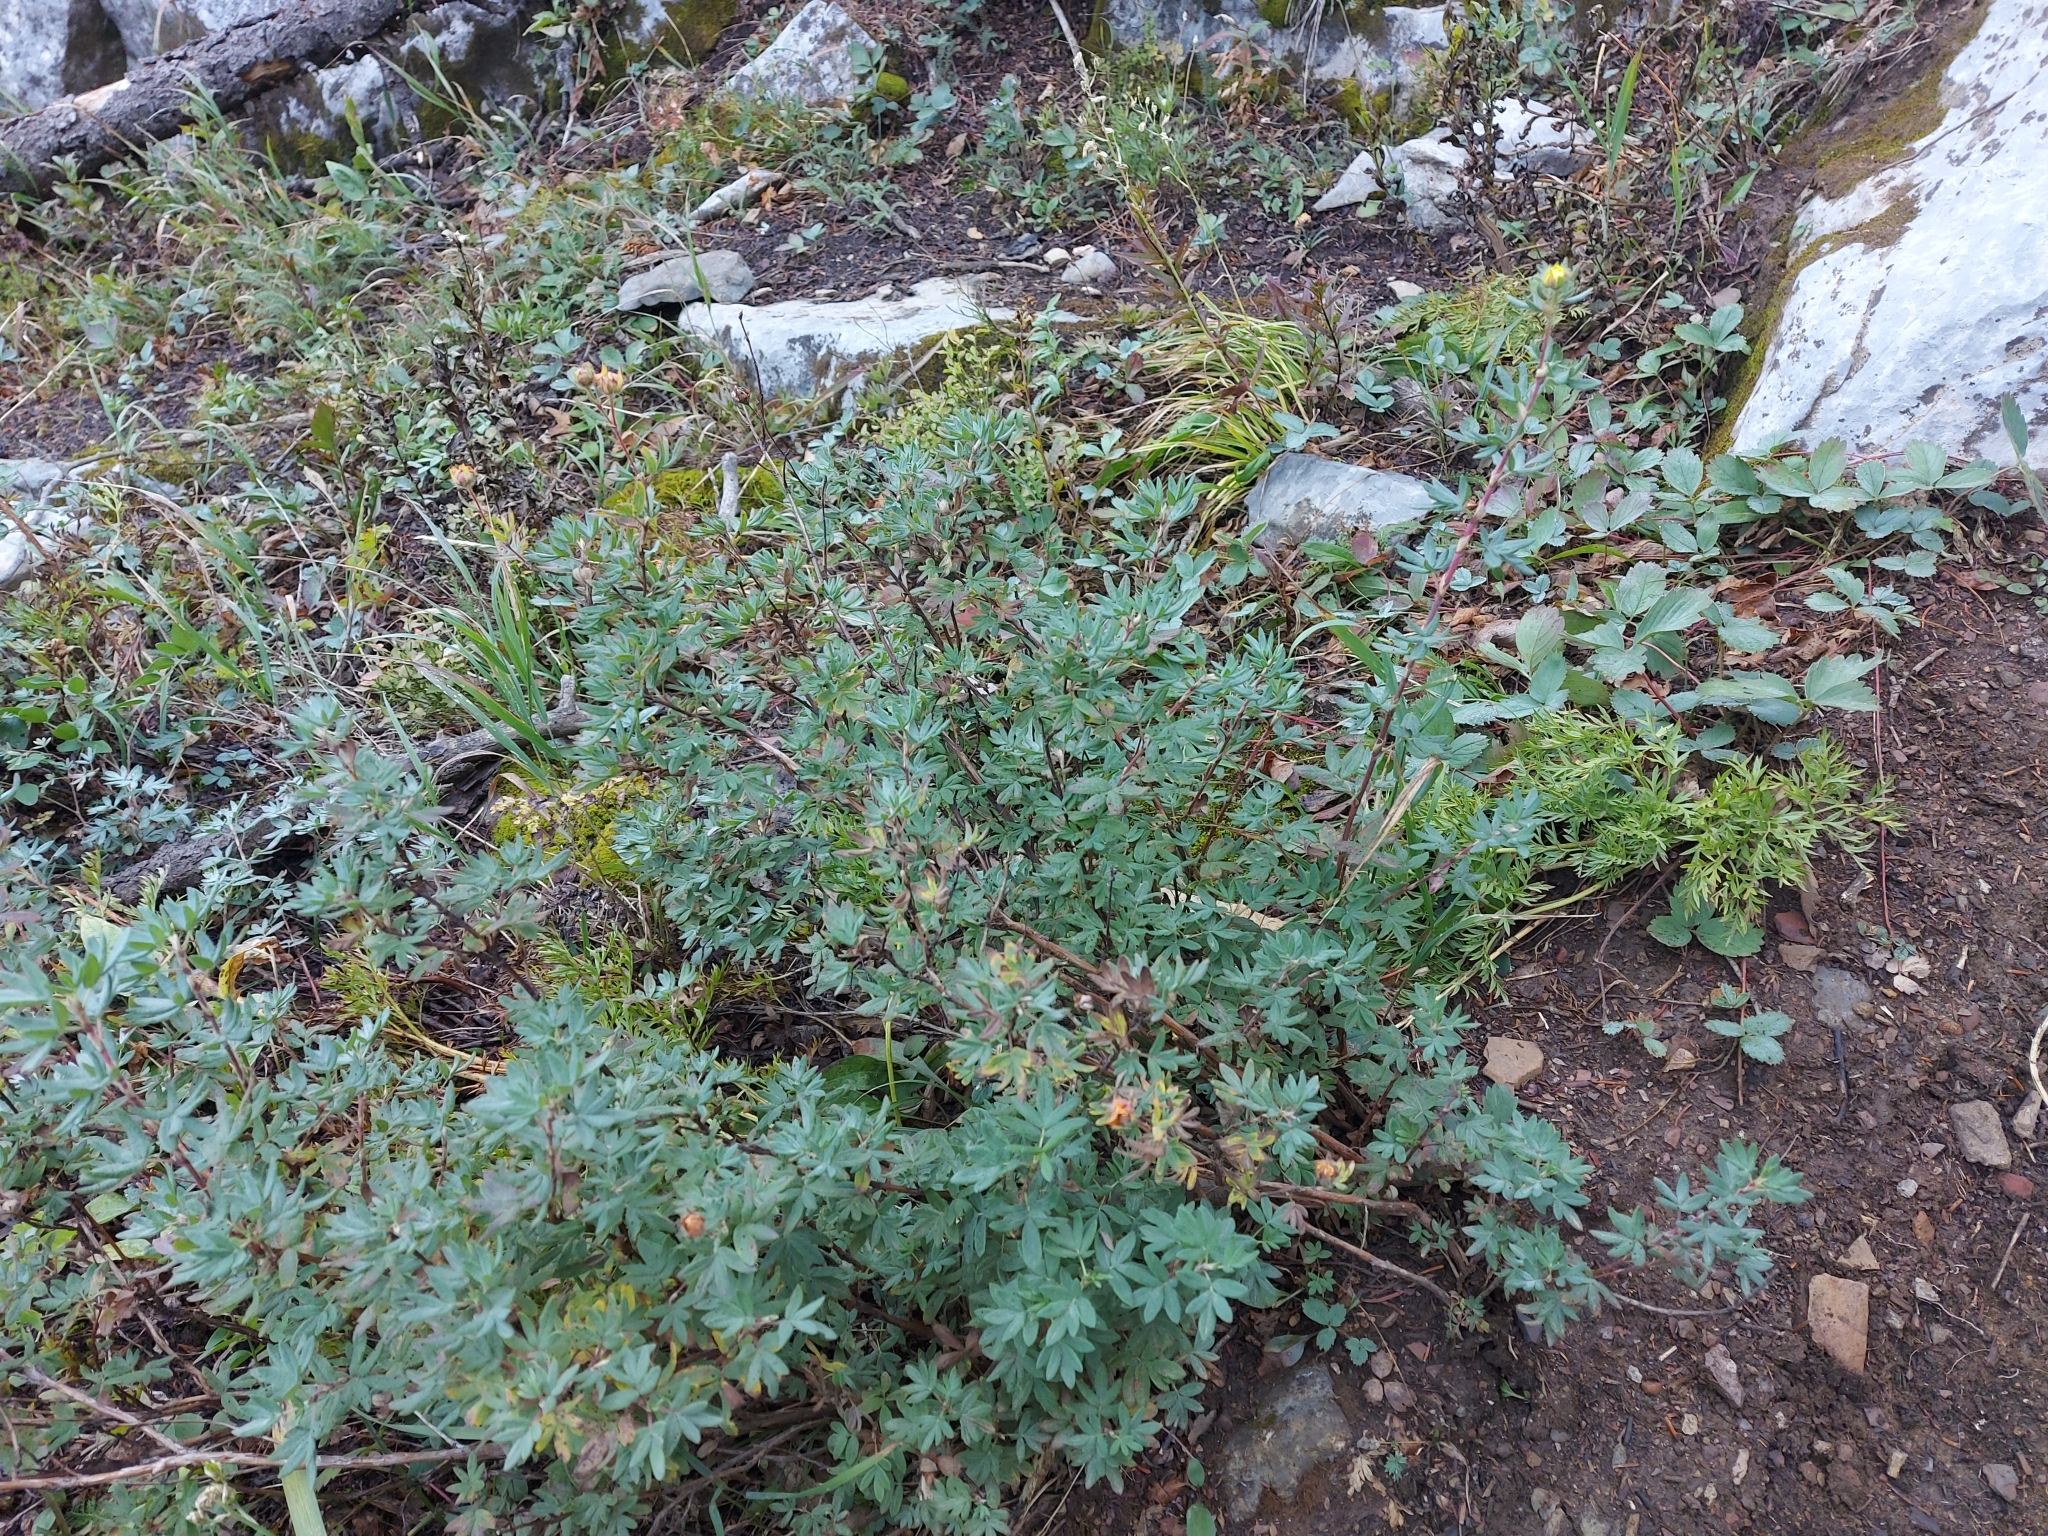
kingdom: Plantae
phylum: Tracheophyta
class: Magnoliopsida
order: Rosales
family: Rosaceae
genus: Dasiphora
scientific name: Dasiphora fruticosa
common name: Shrubby cinquefoil
